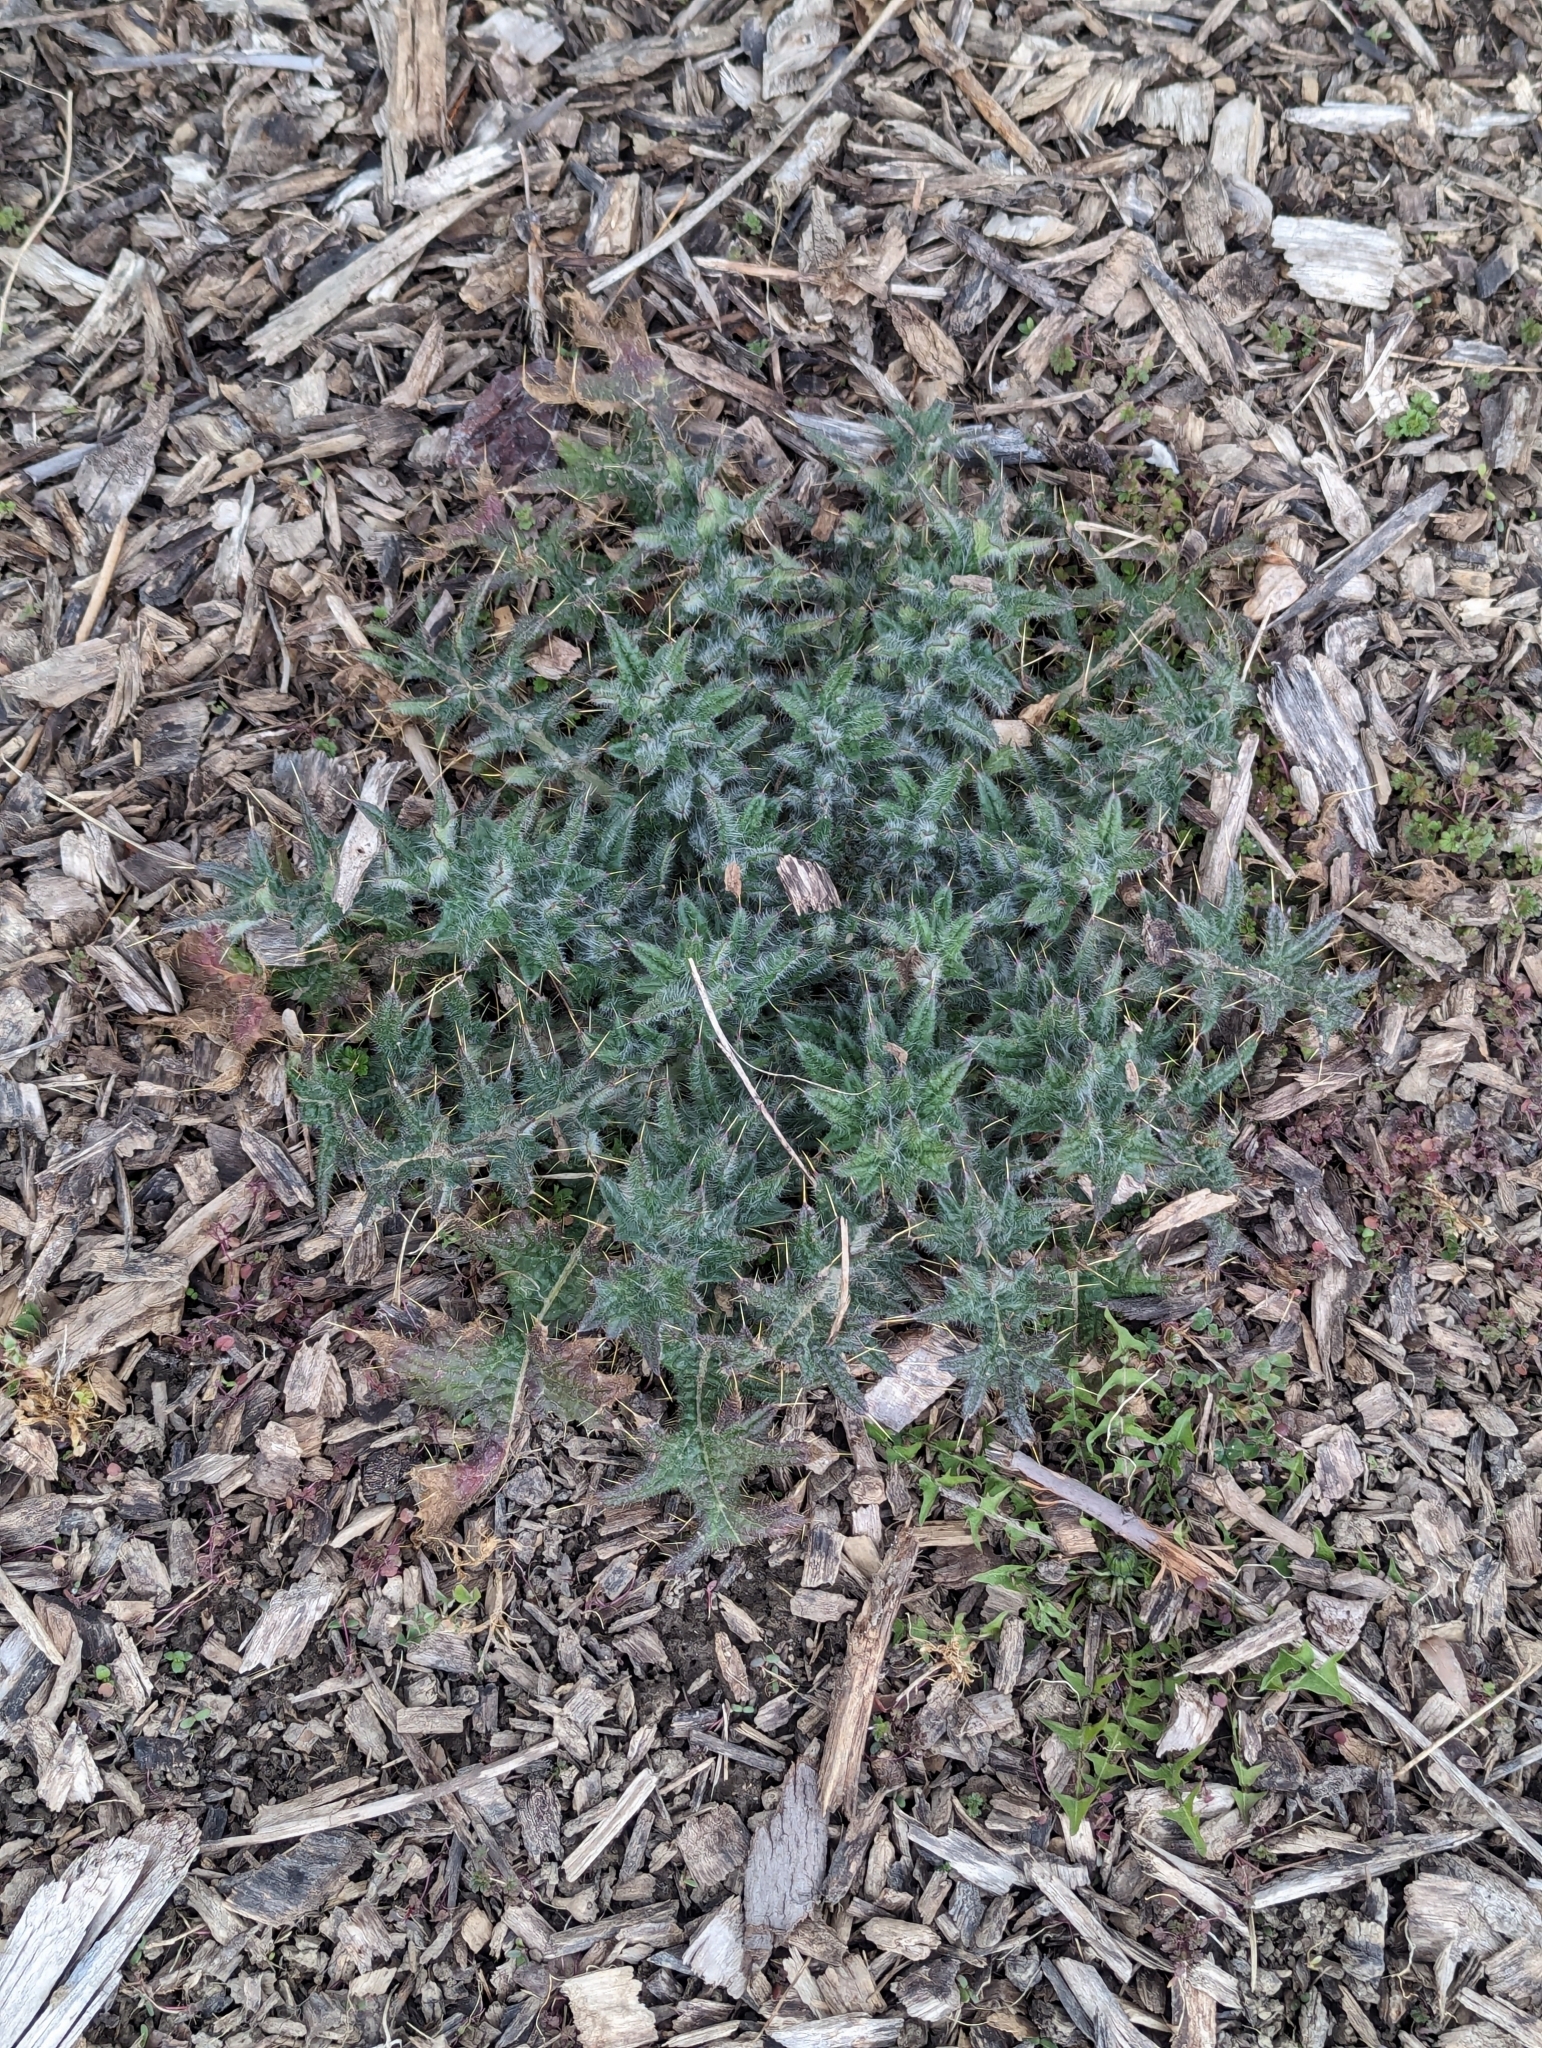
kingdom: Plantae
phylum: Tracheophyta
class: Magnoliopsida
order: Asterales
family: Asteraceae
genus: Cirsium
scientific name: Cirsium vulgare
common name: Bull thistle
